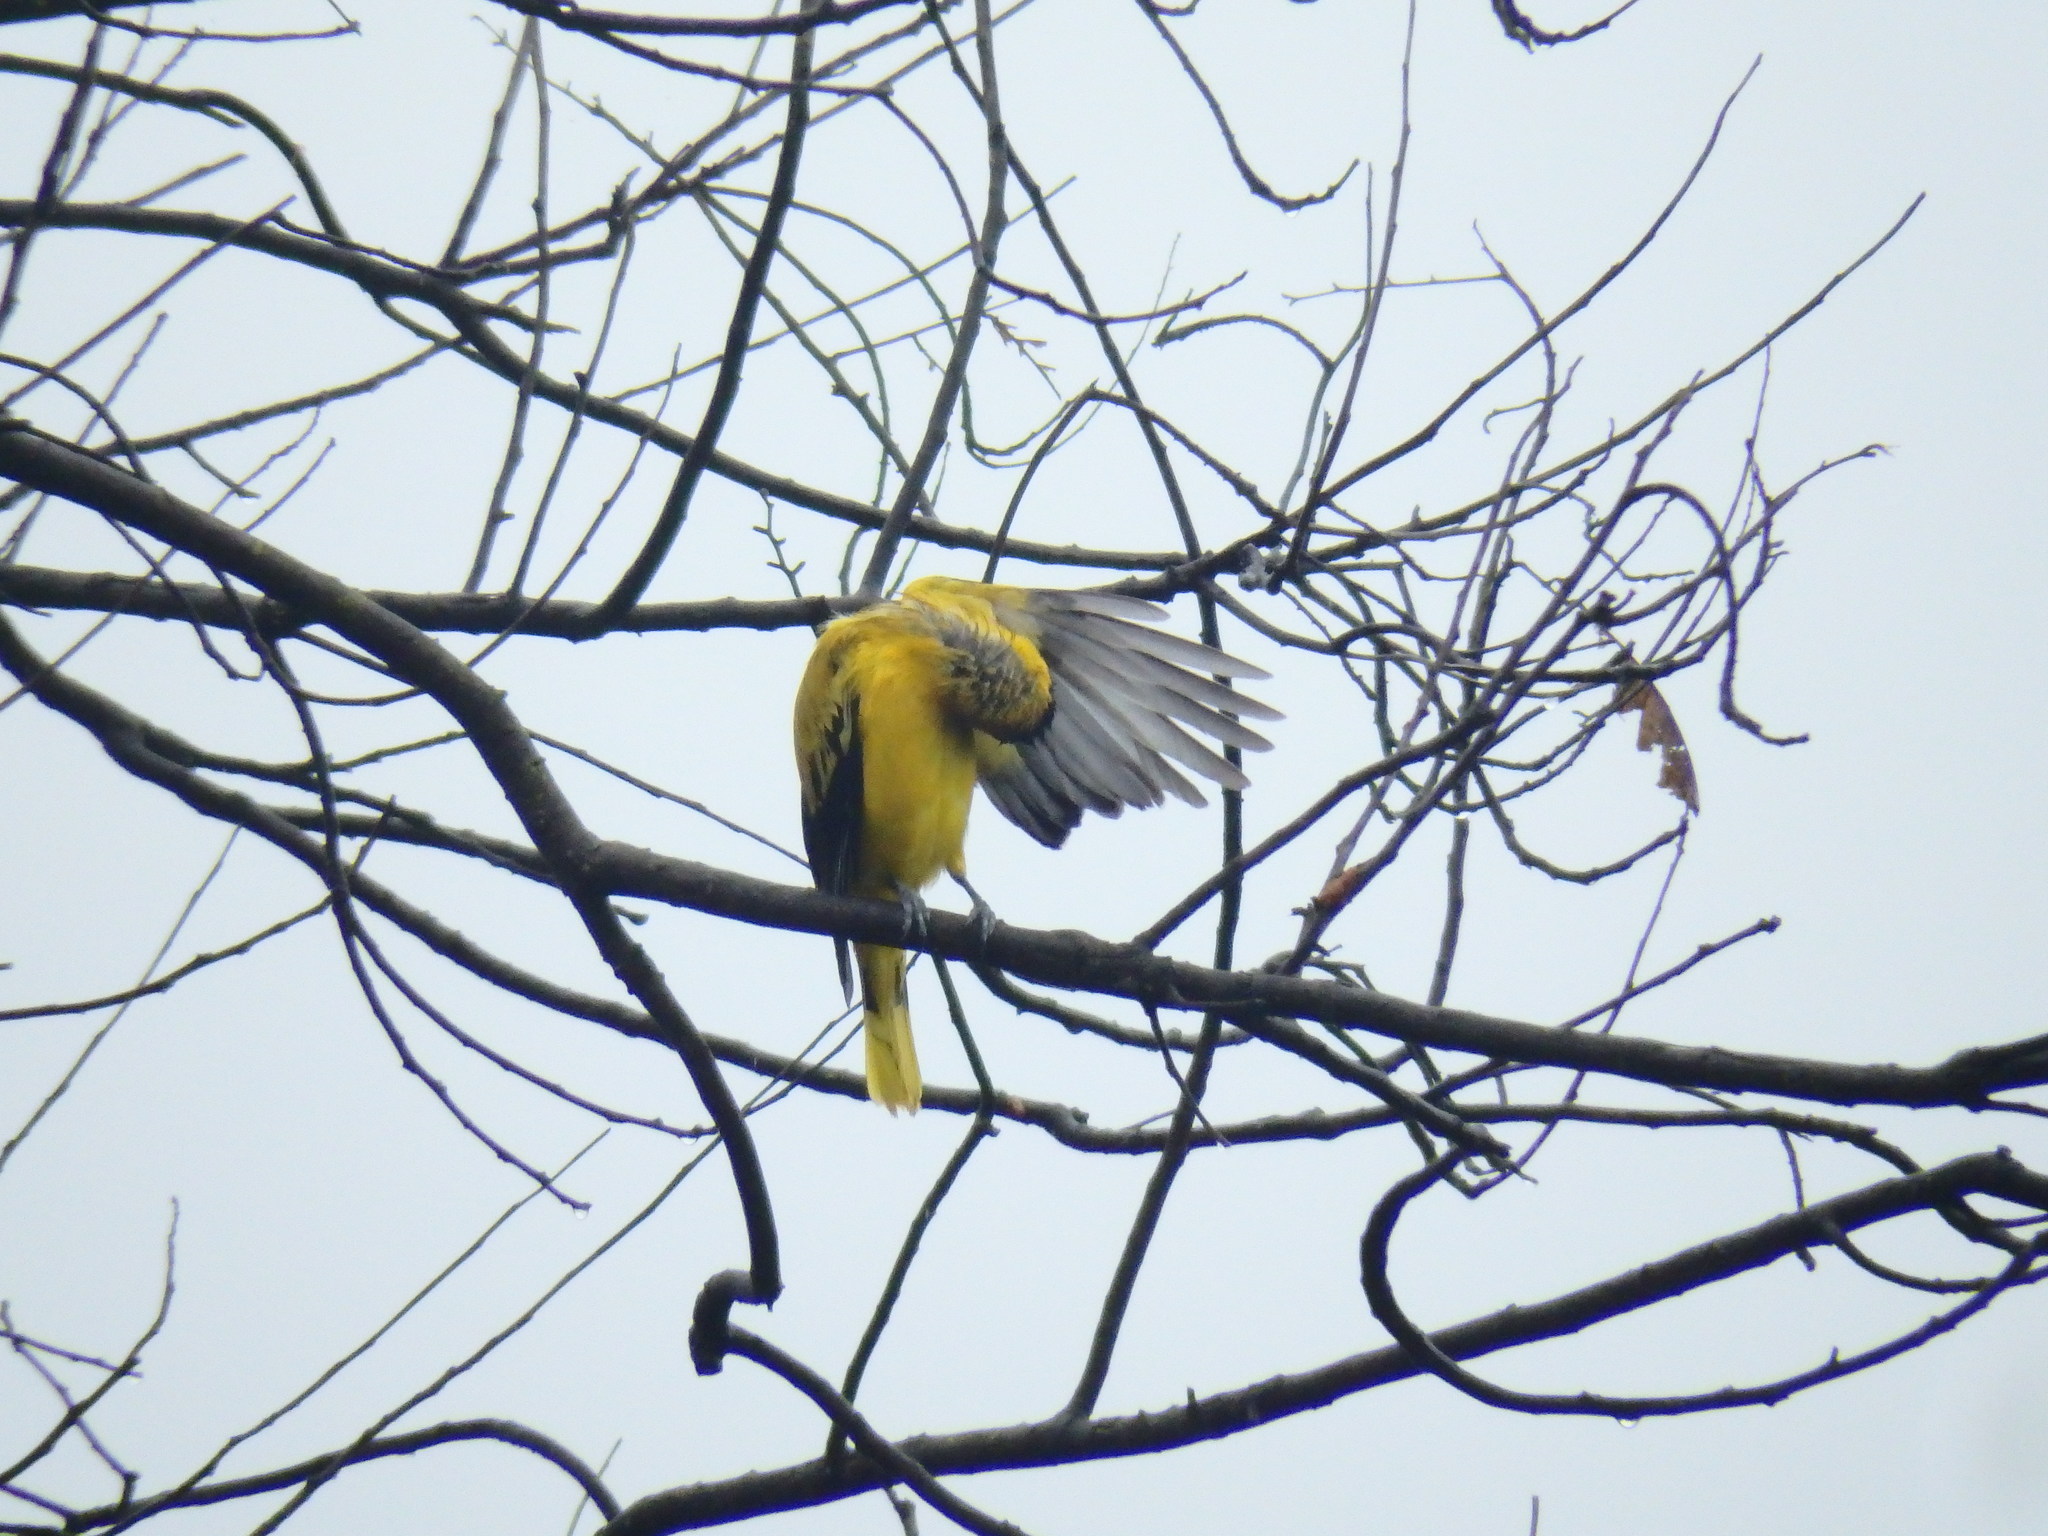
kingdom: Animalia
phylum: Chordata
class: Aves
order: Passeriformes
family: Oriolidae
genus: Oriolus
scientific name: Oriolus chinensis
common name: Black-naped oriole
